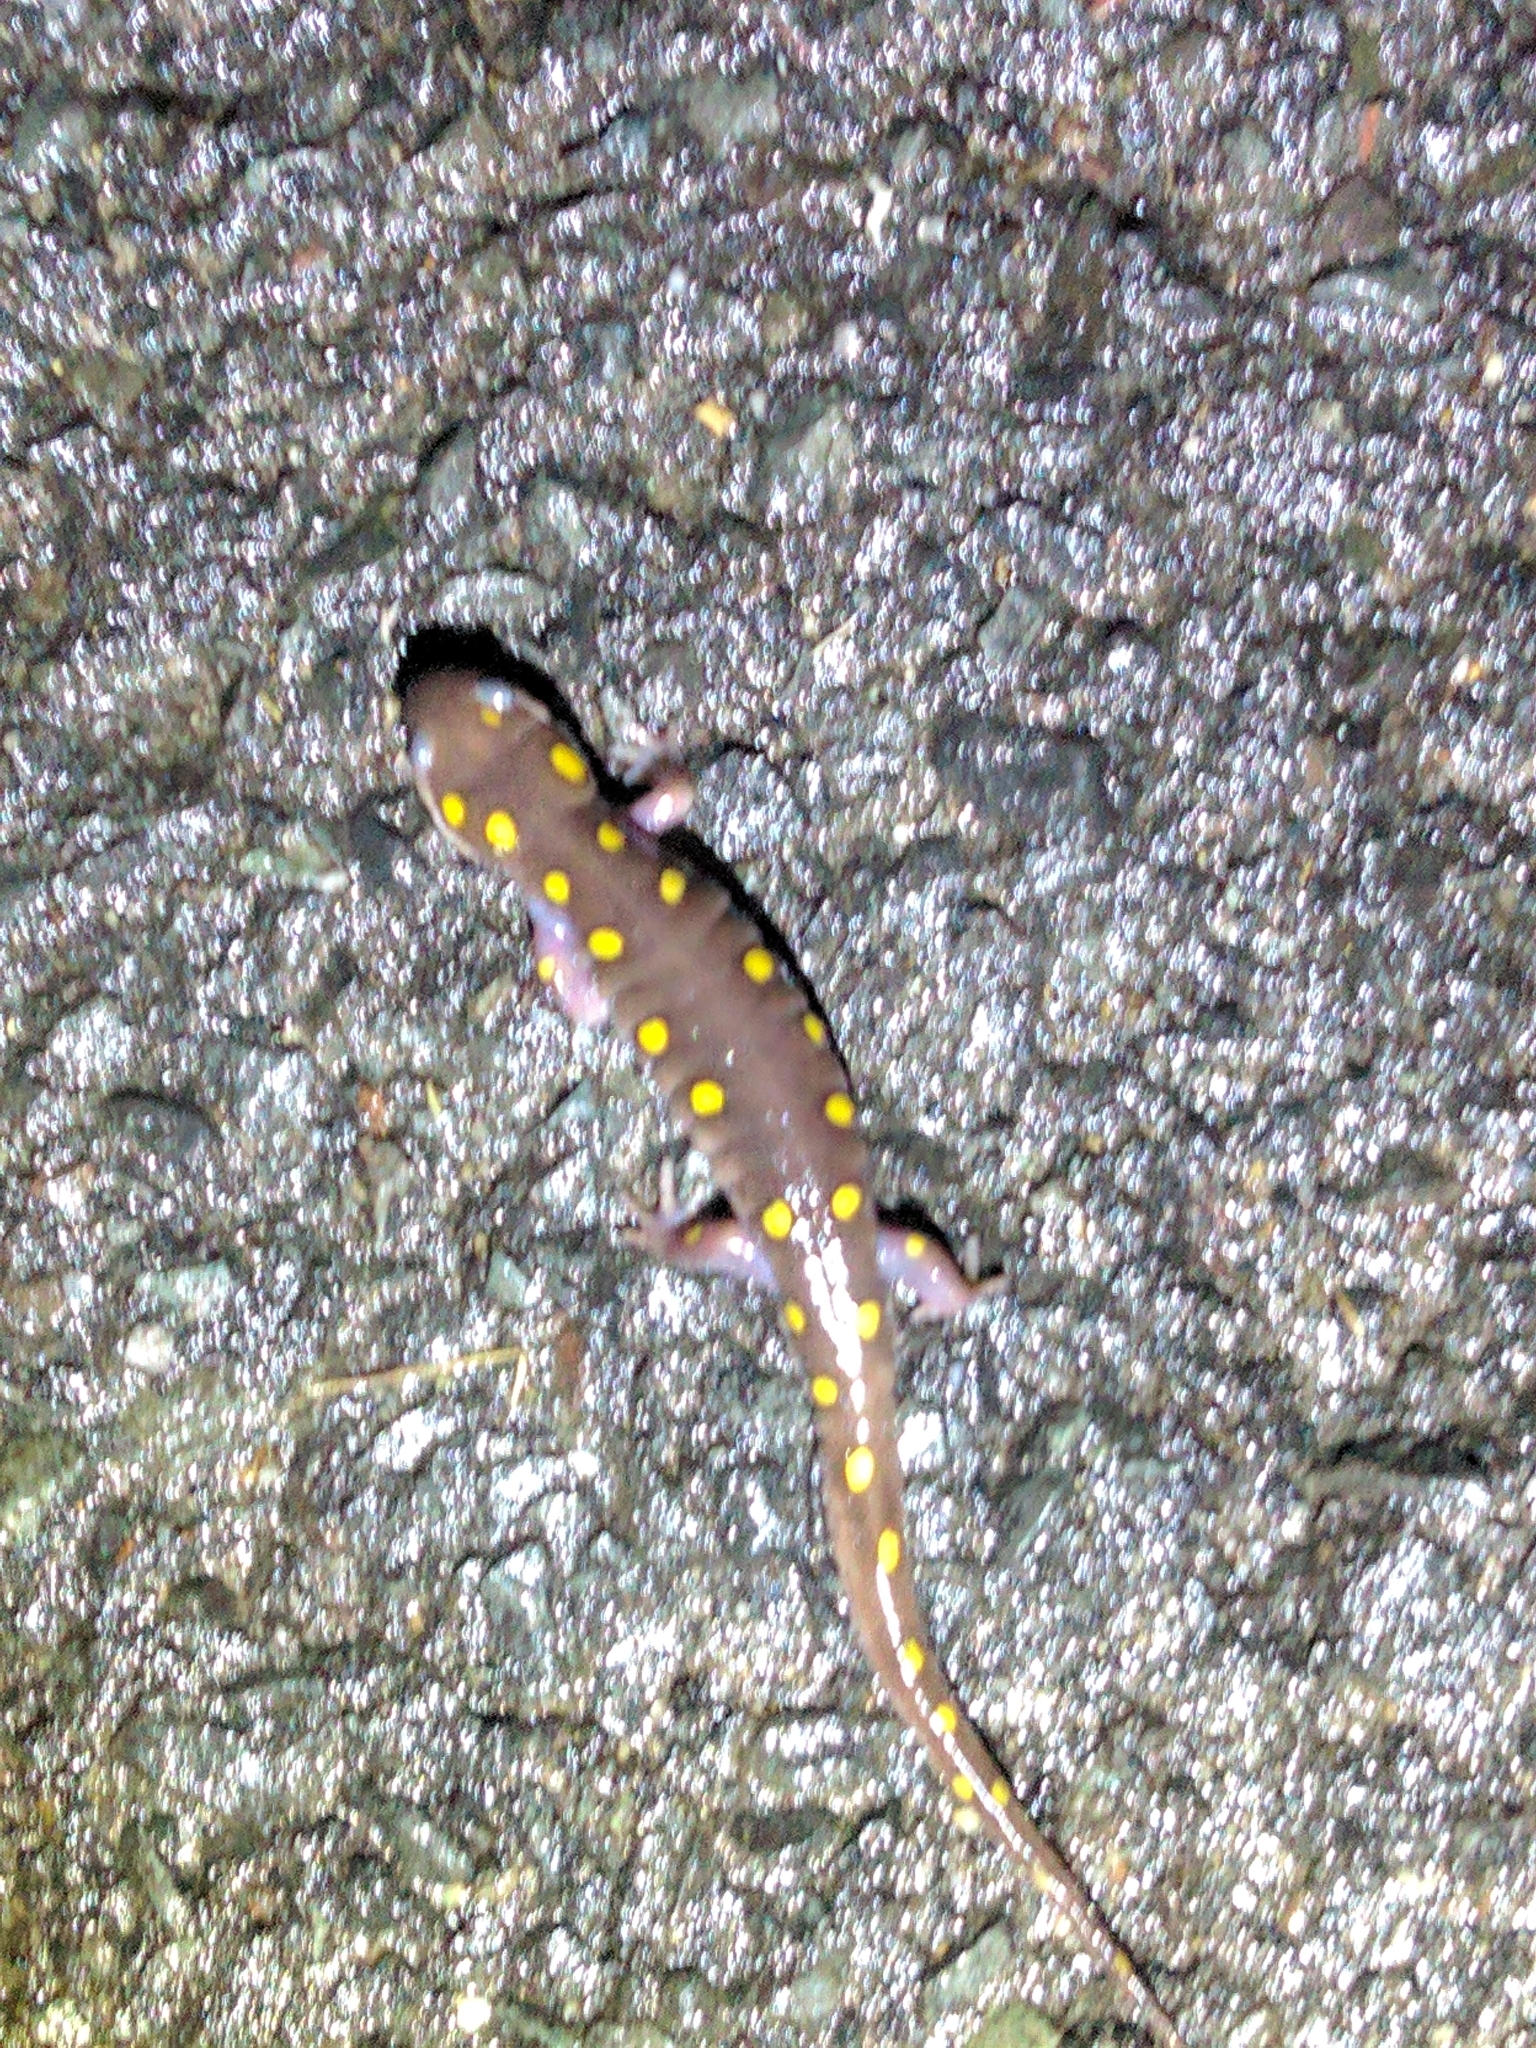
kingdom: Animalia
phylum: Chordata
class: Amphibia
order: Caudata
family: Ambystomatidae
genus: Ambystoma
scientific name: Ambystoma maculatum
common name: Spotted salamander
